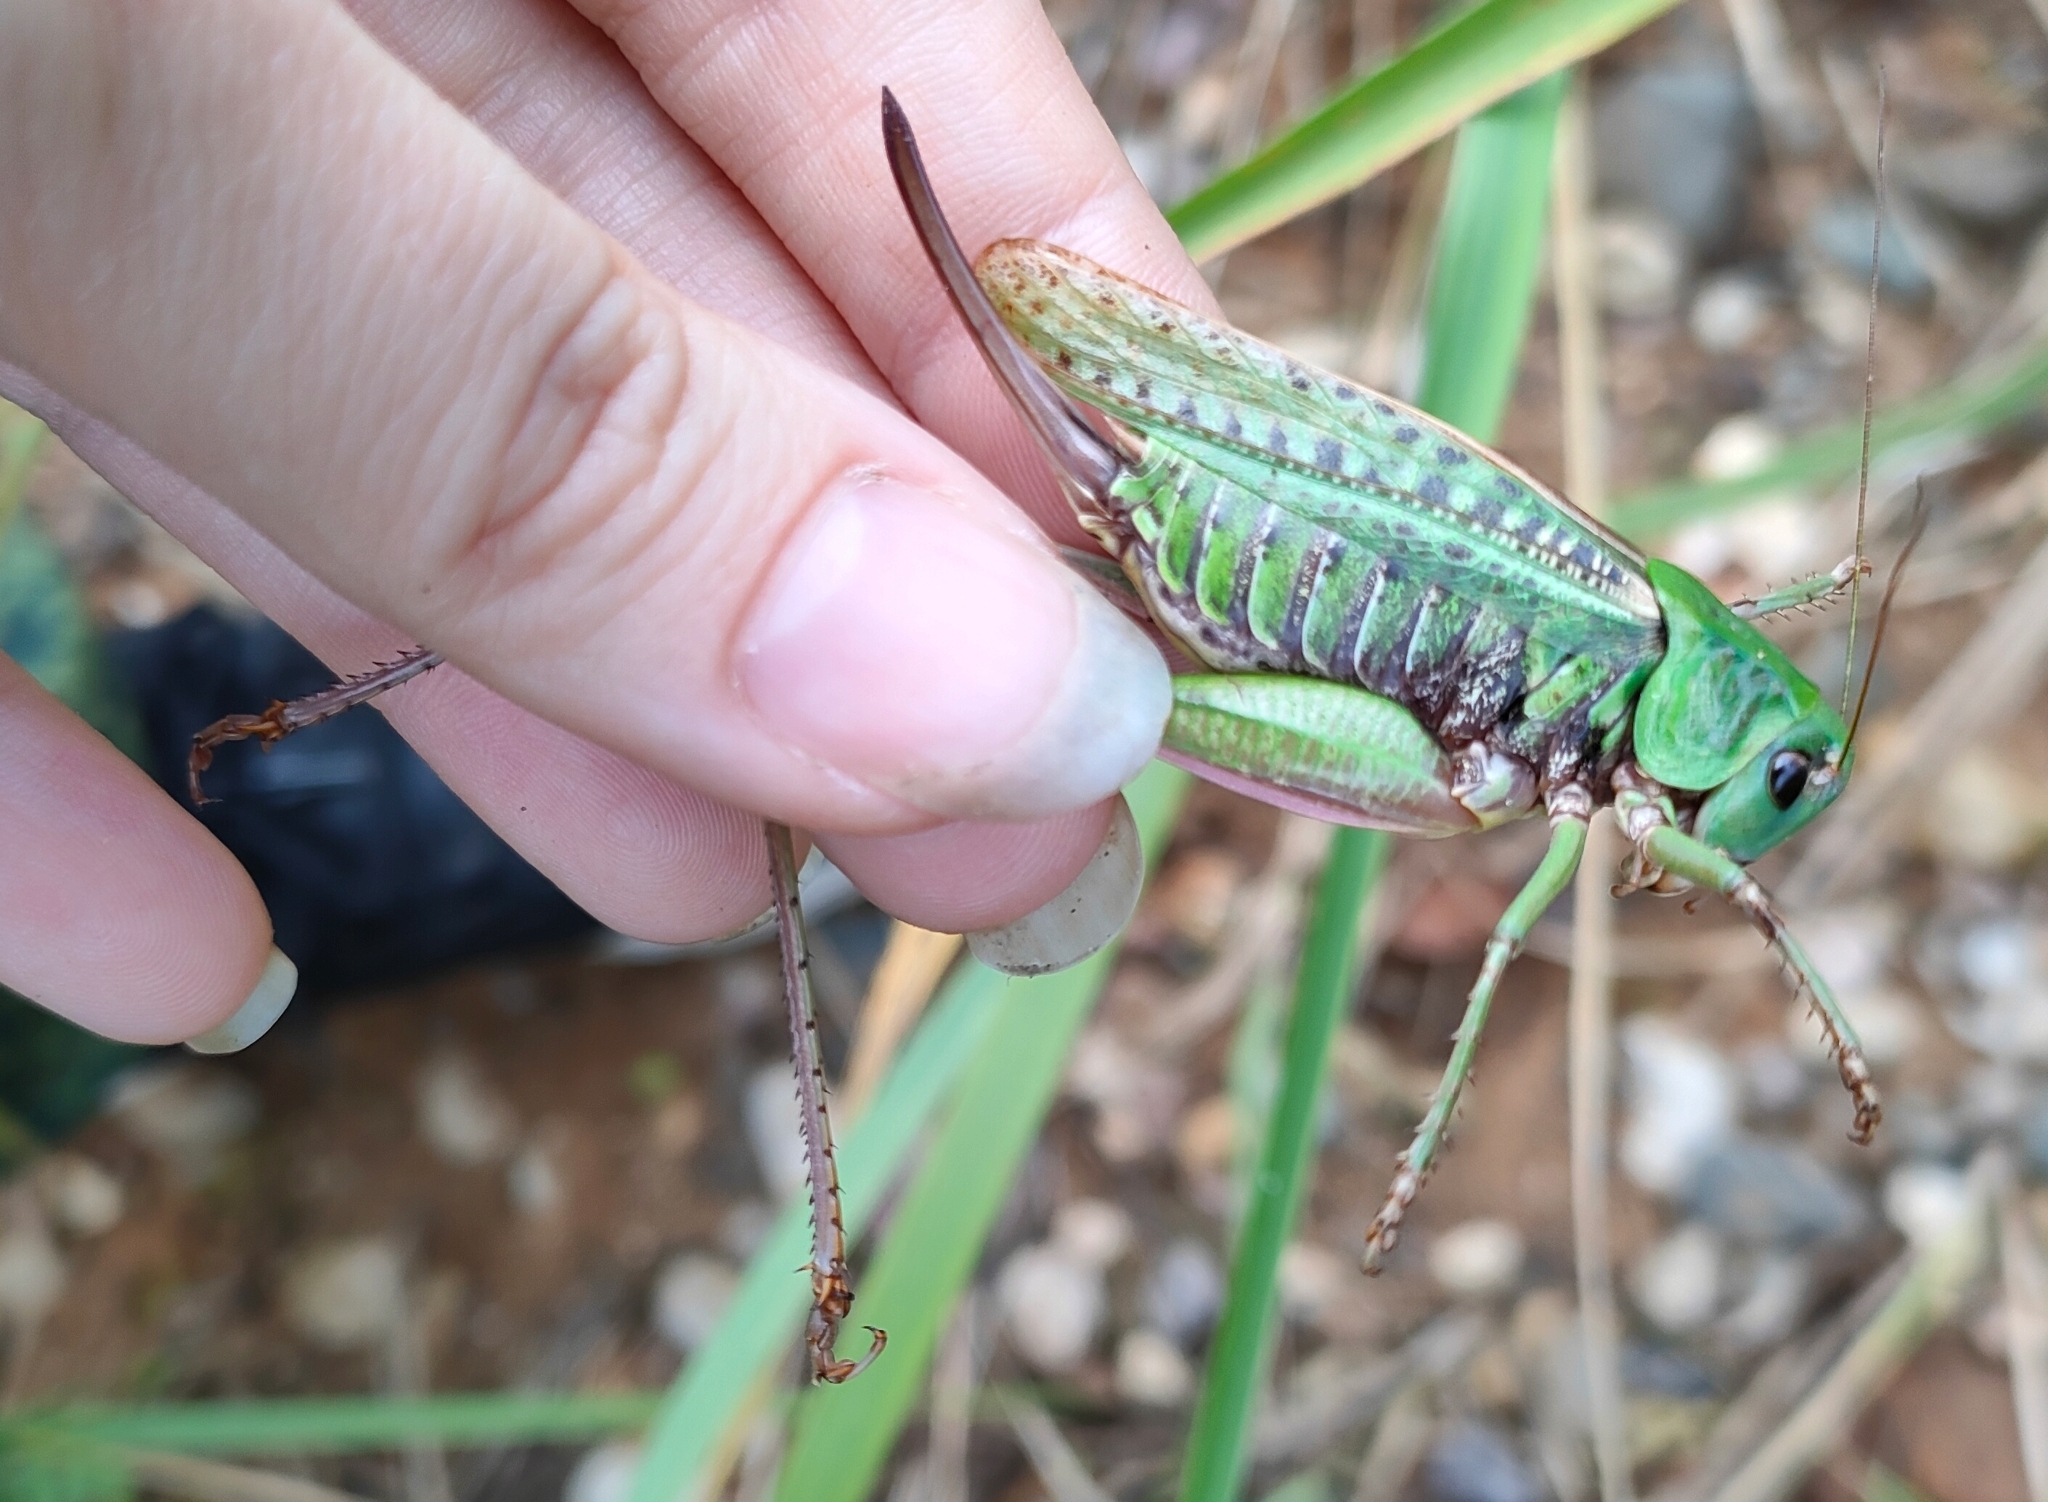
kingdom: Animalia
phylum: Arthropoda
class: Insecta
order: Orthoptera
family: Tettigoniidae
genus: Decticus
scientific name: Decticus verrucivorus
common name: Wart-biter
